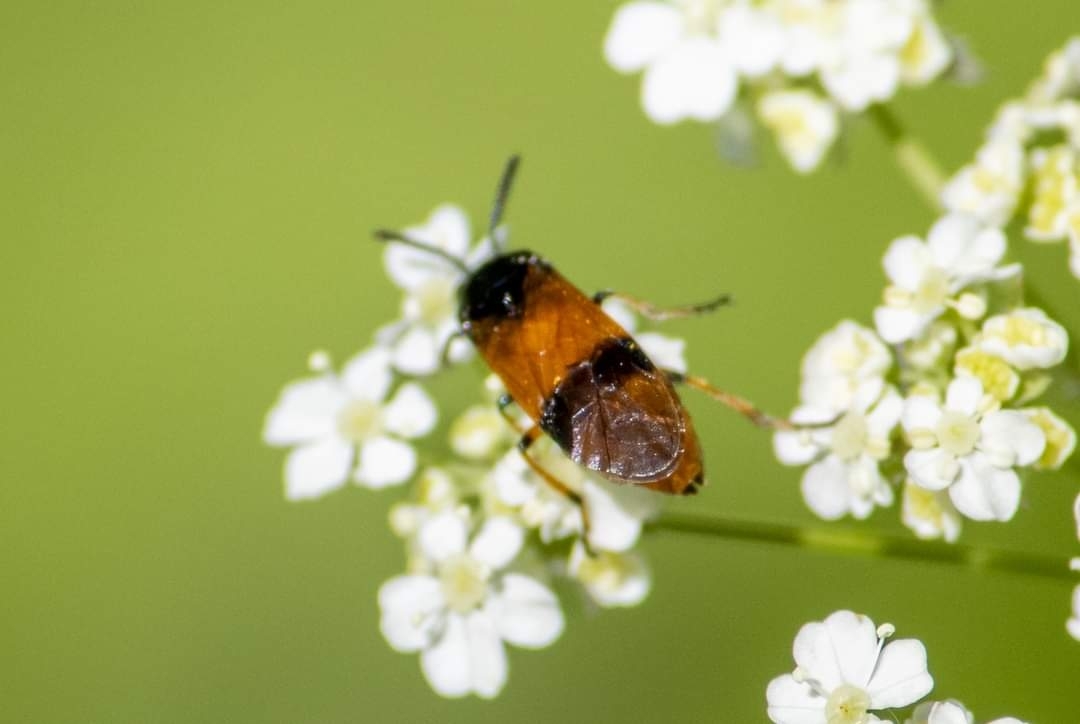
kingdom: Animalia
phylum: Arthropoda
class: Insecta
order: Hymenoptera
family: Argidae
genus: Arge
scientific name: Arge cyanocrocea
